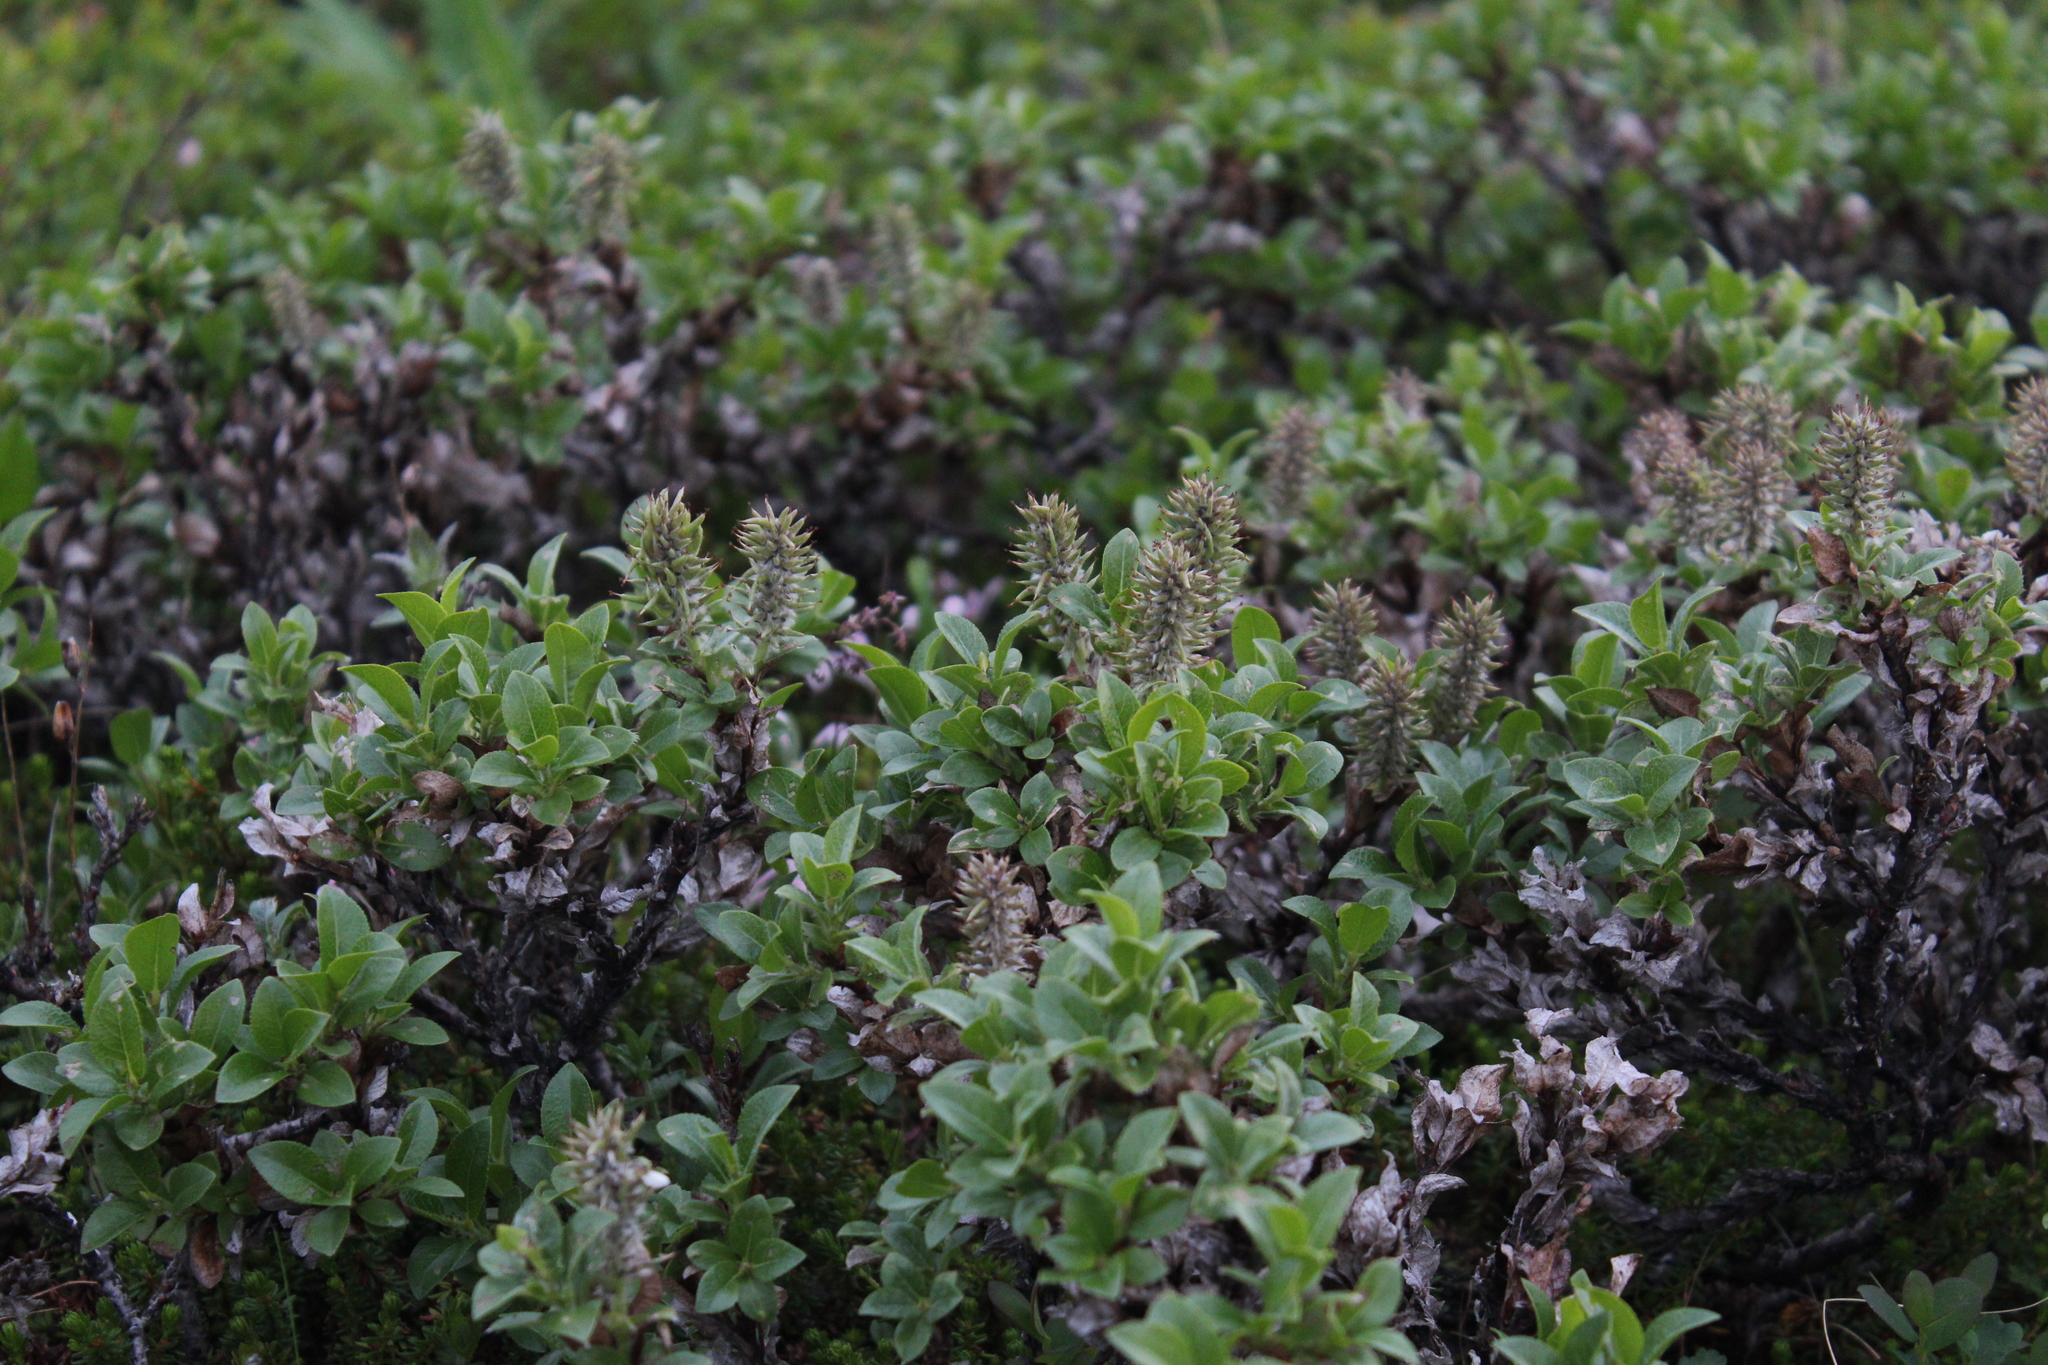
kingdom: Plantae
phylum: Tracheophyta
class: Magnoliopsida
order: Malpighiales
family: Salicaceae
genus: Salix
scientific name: Salix myrsinites
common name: Myrtle willow
